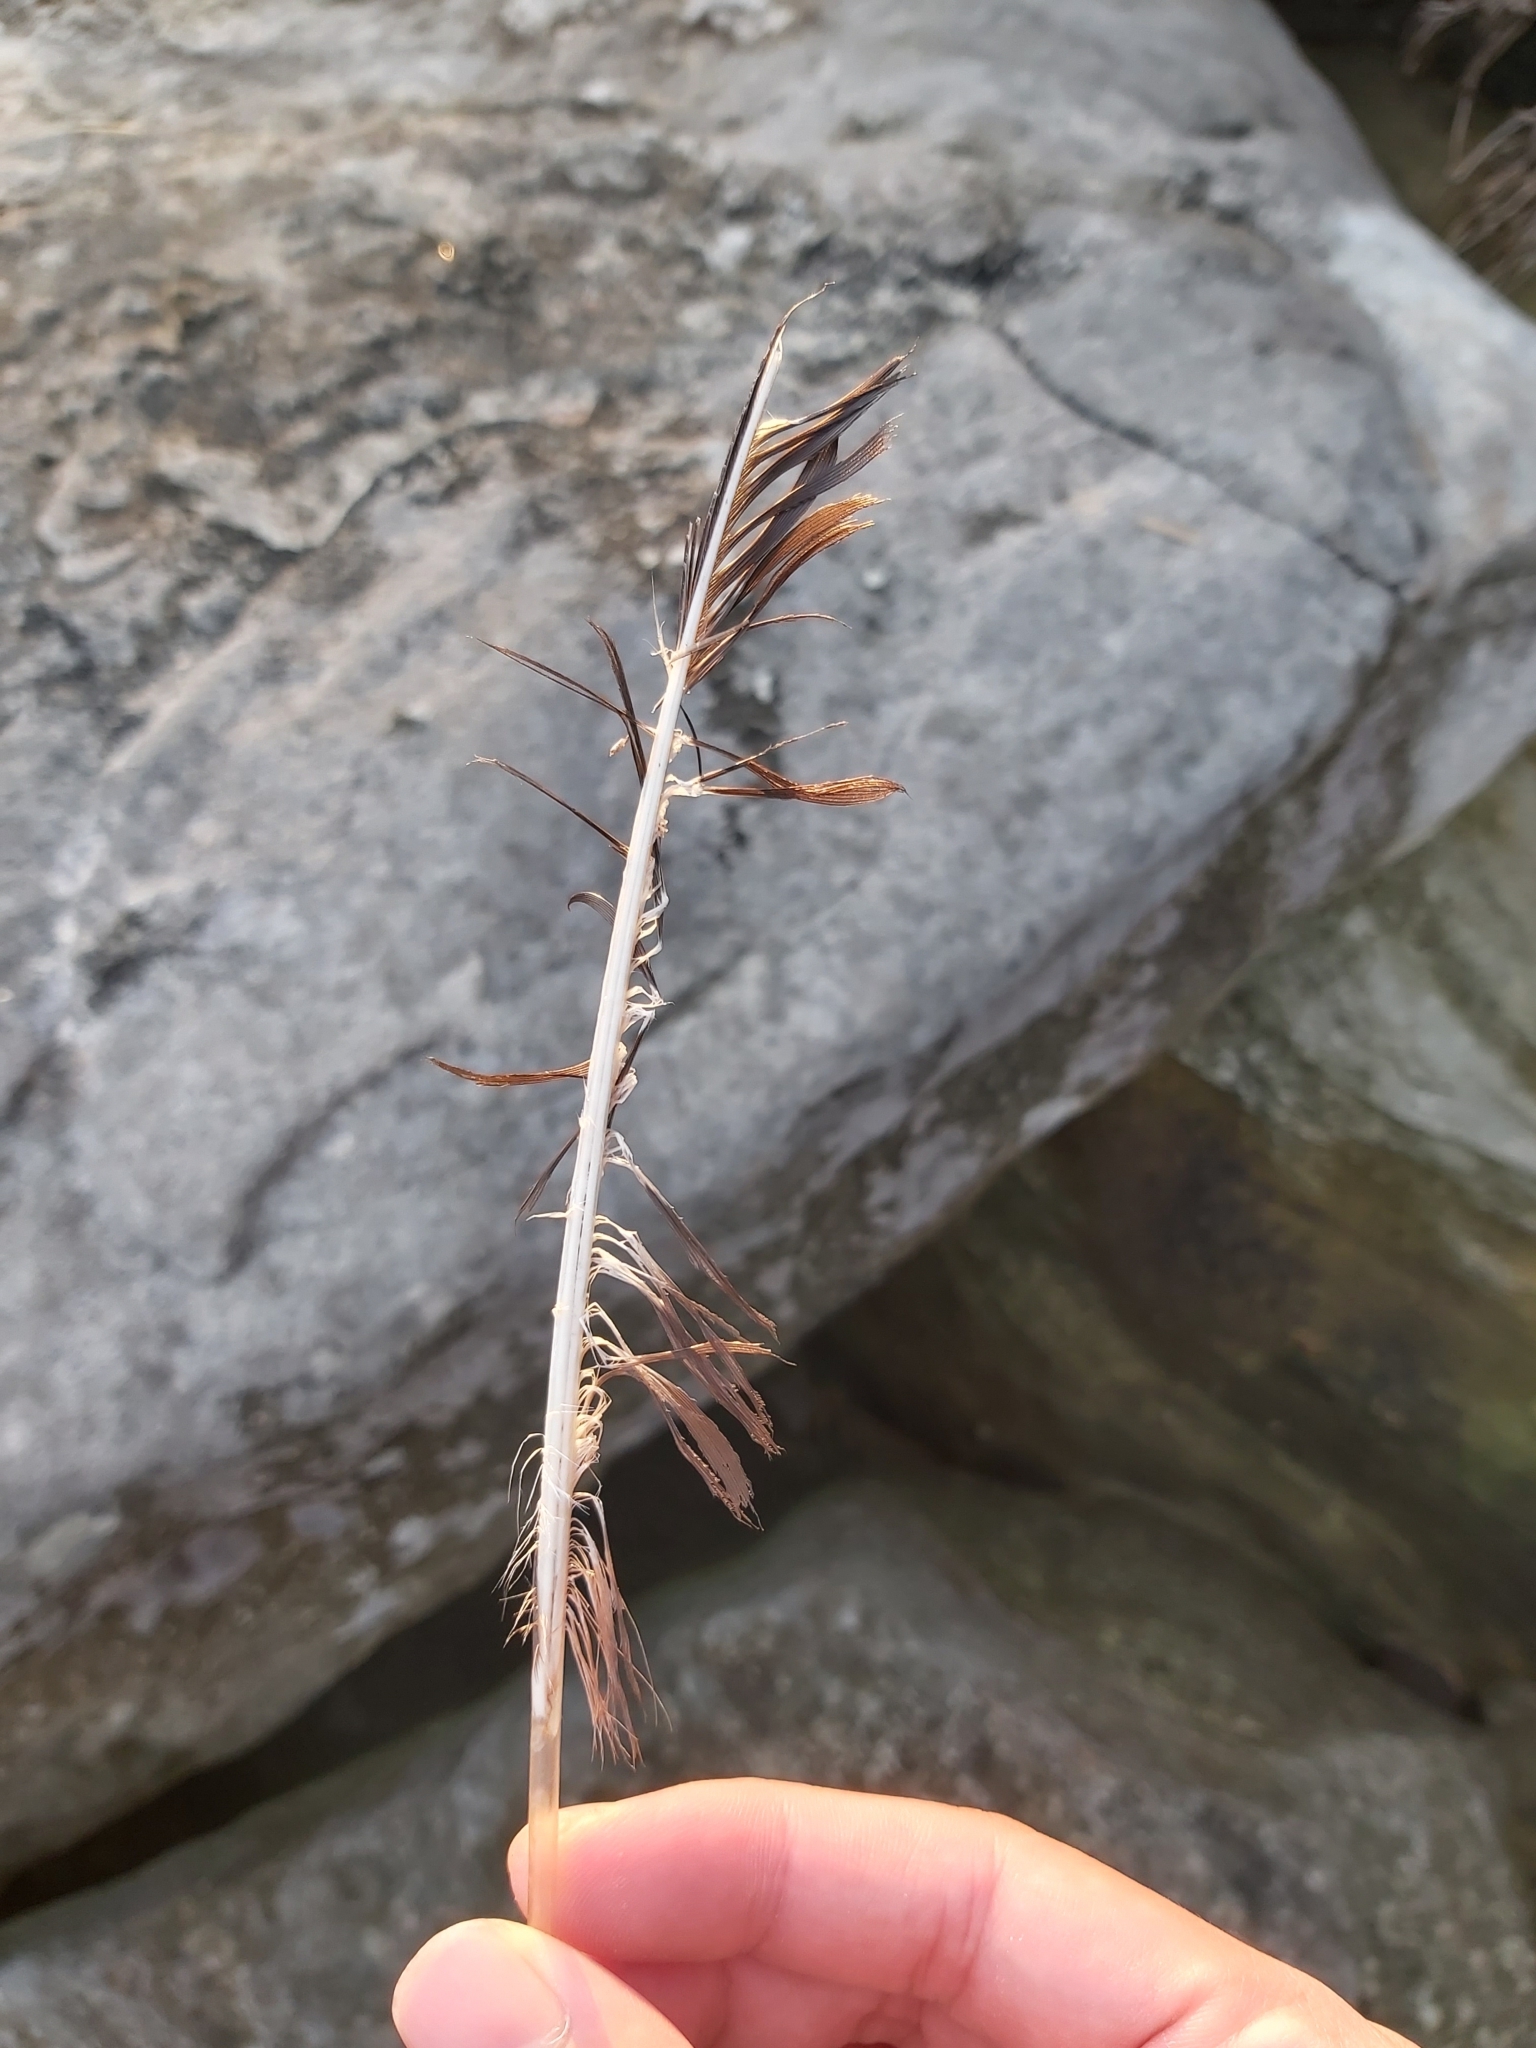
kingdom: Animalia
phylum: Chordata
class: Aves
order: Charadriiformes
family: Laridae
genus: Chroicocephalus
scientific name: Chroicocephalus novaehollandiae
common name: Silver gull
